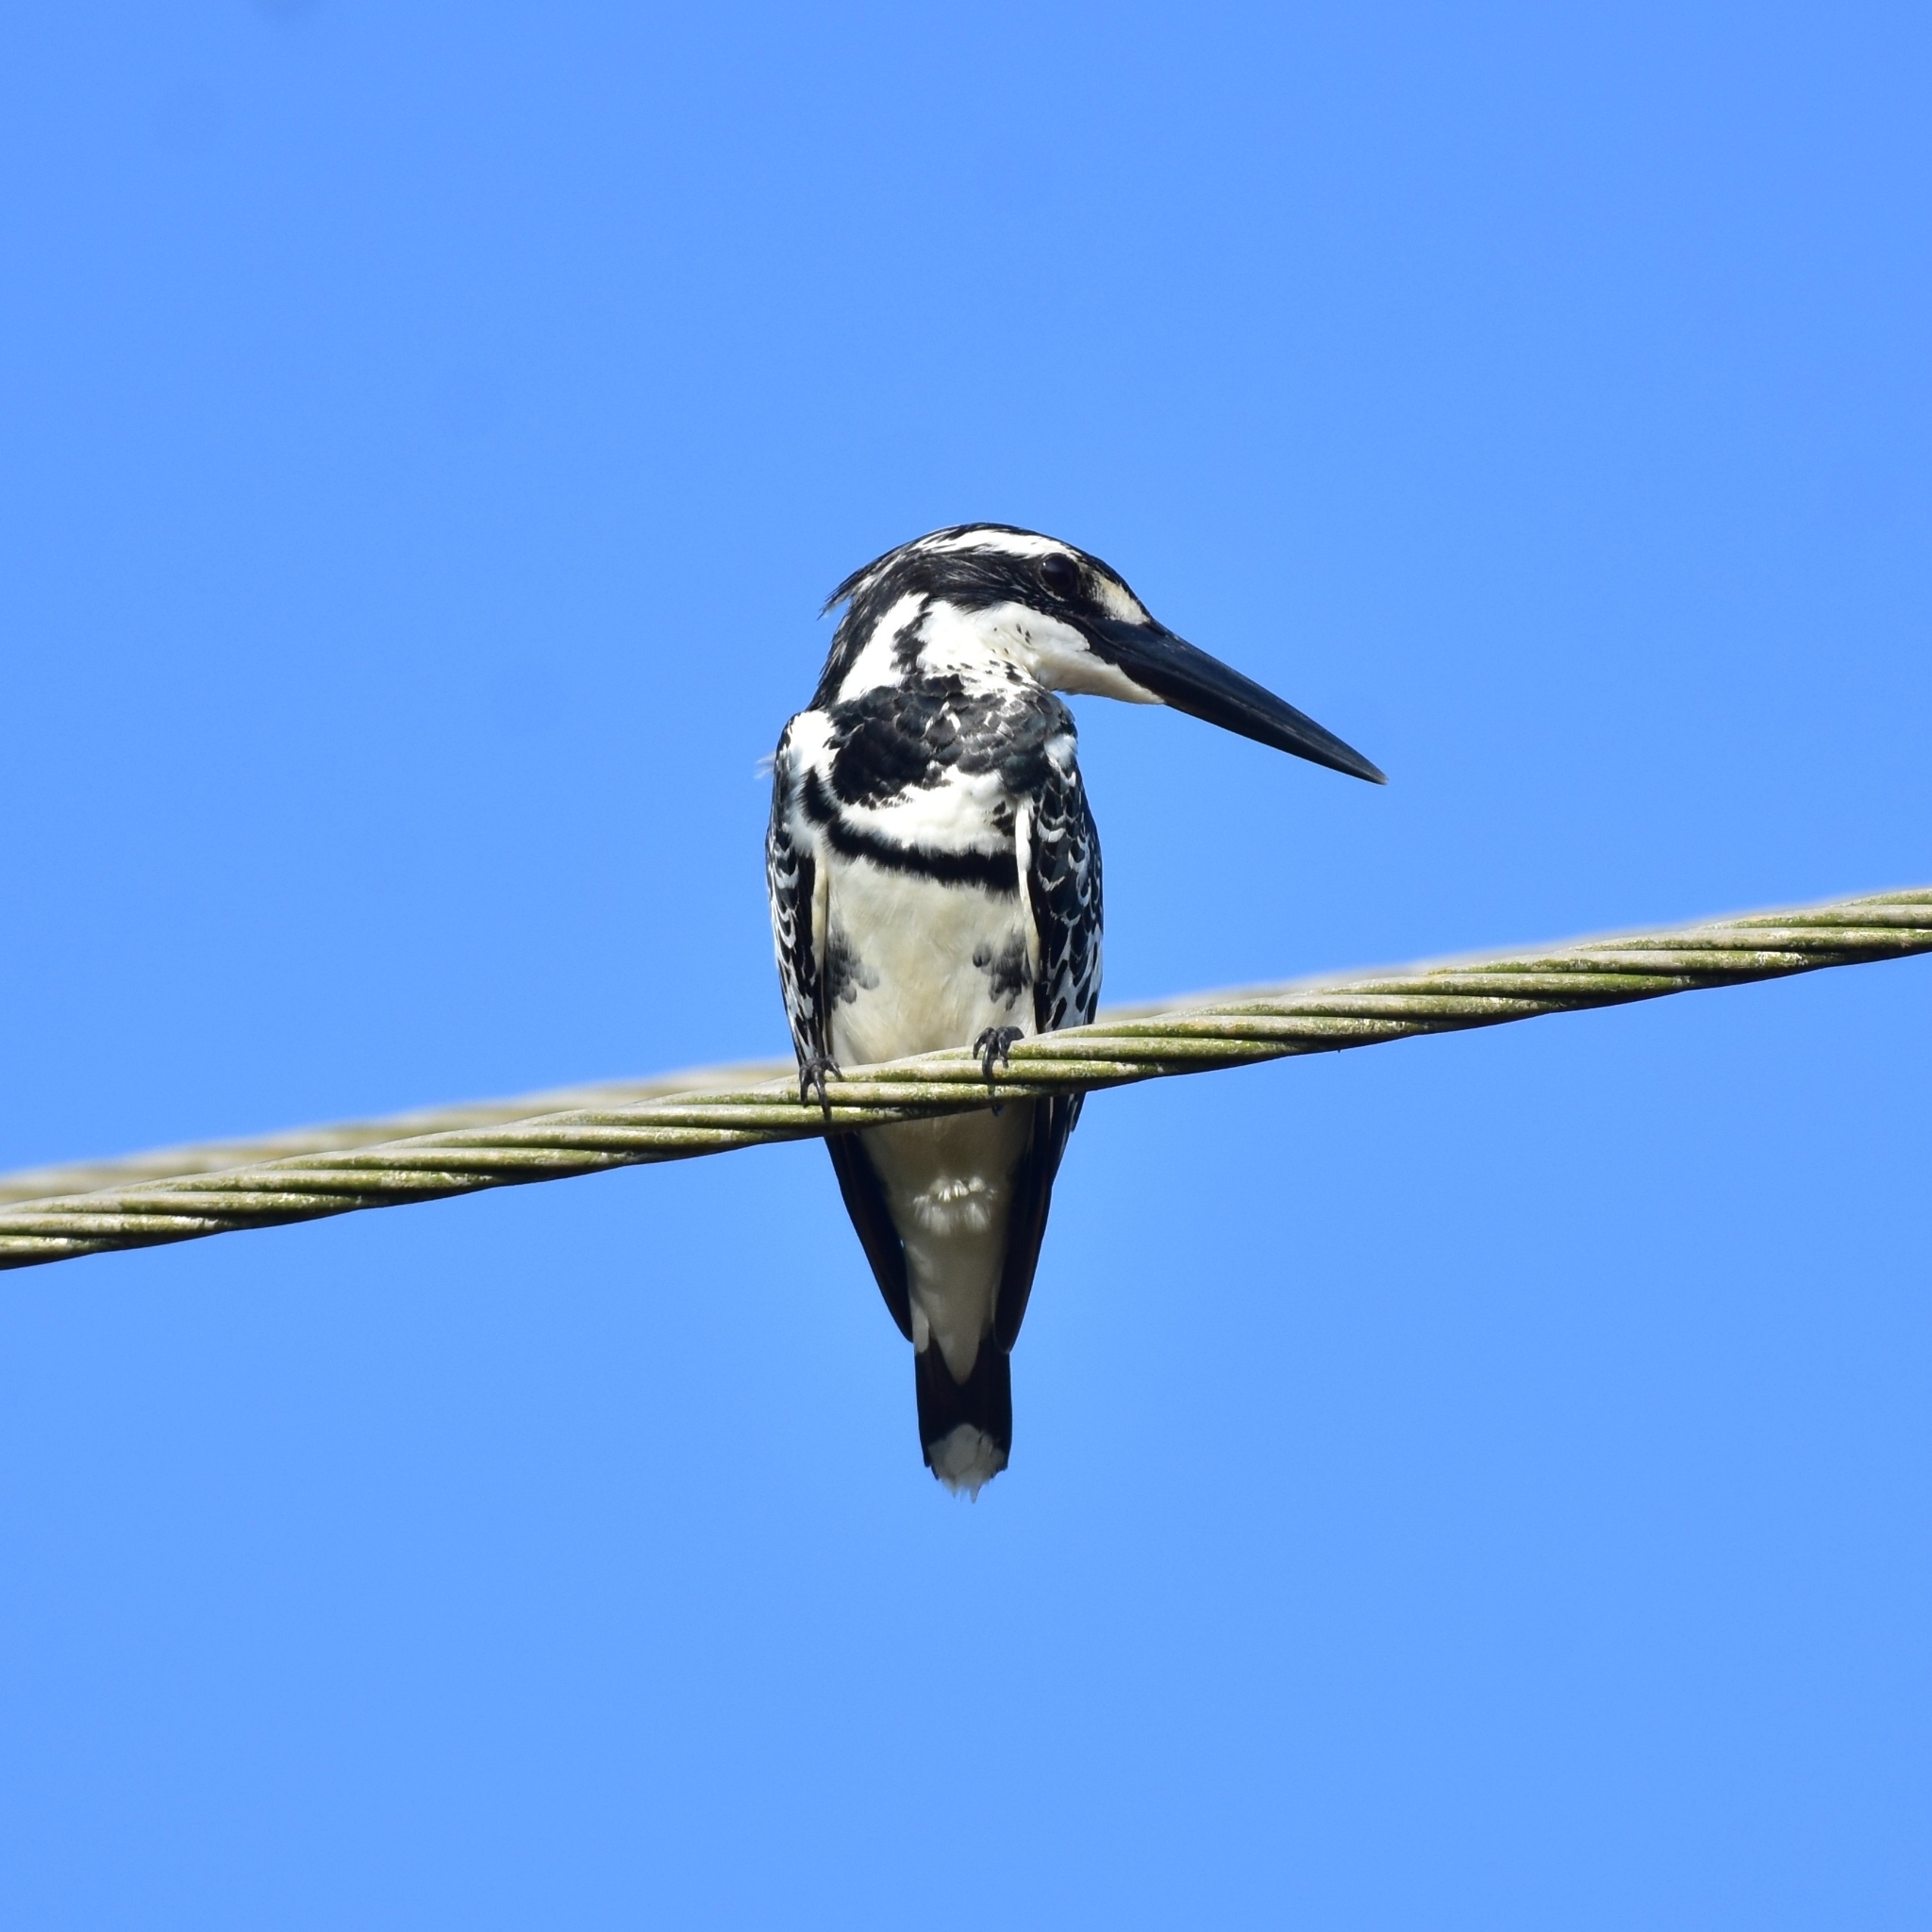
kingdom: Animalia
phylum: Chordata
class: Aves
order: Coraciiformes
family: Alcedinidae
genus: Ceryle
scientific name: Ceryle rudis
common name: Pied kingfisher
